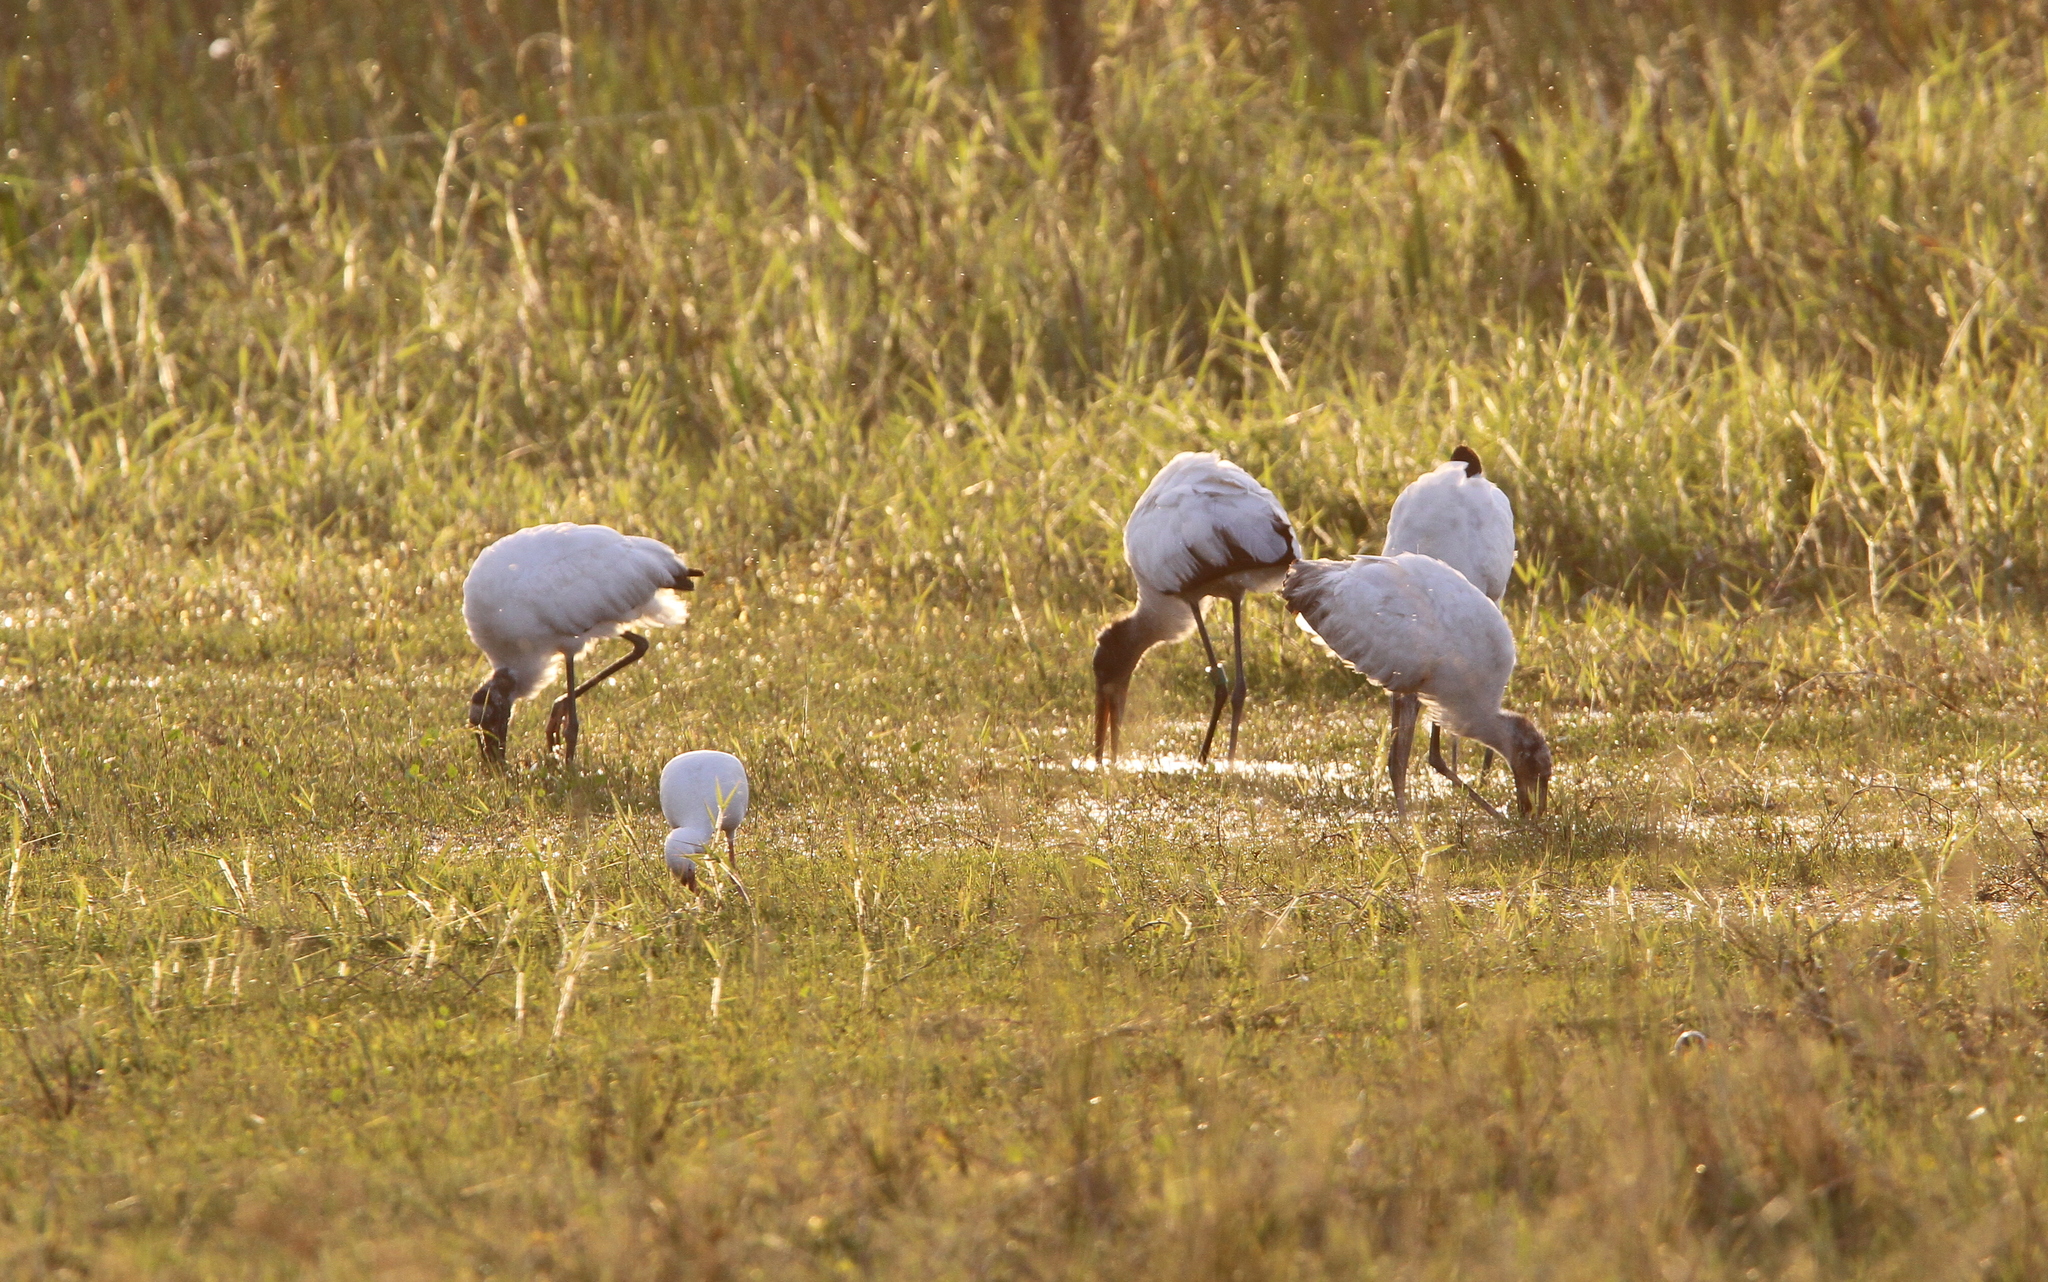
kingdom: Animalia
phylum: Chordata
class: Aves
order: Ciconiiformes
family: Ciconiidae
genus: Mycteria
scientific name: Mycteria americana
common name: Wood stork
